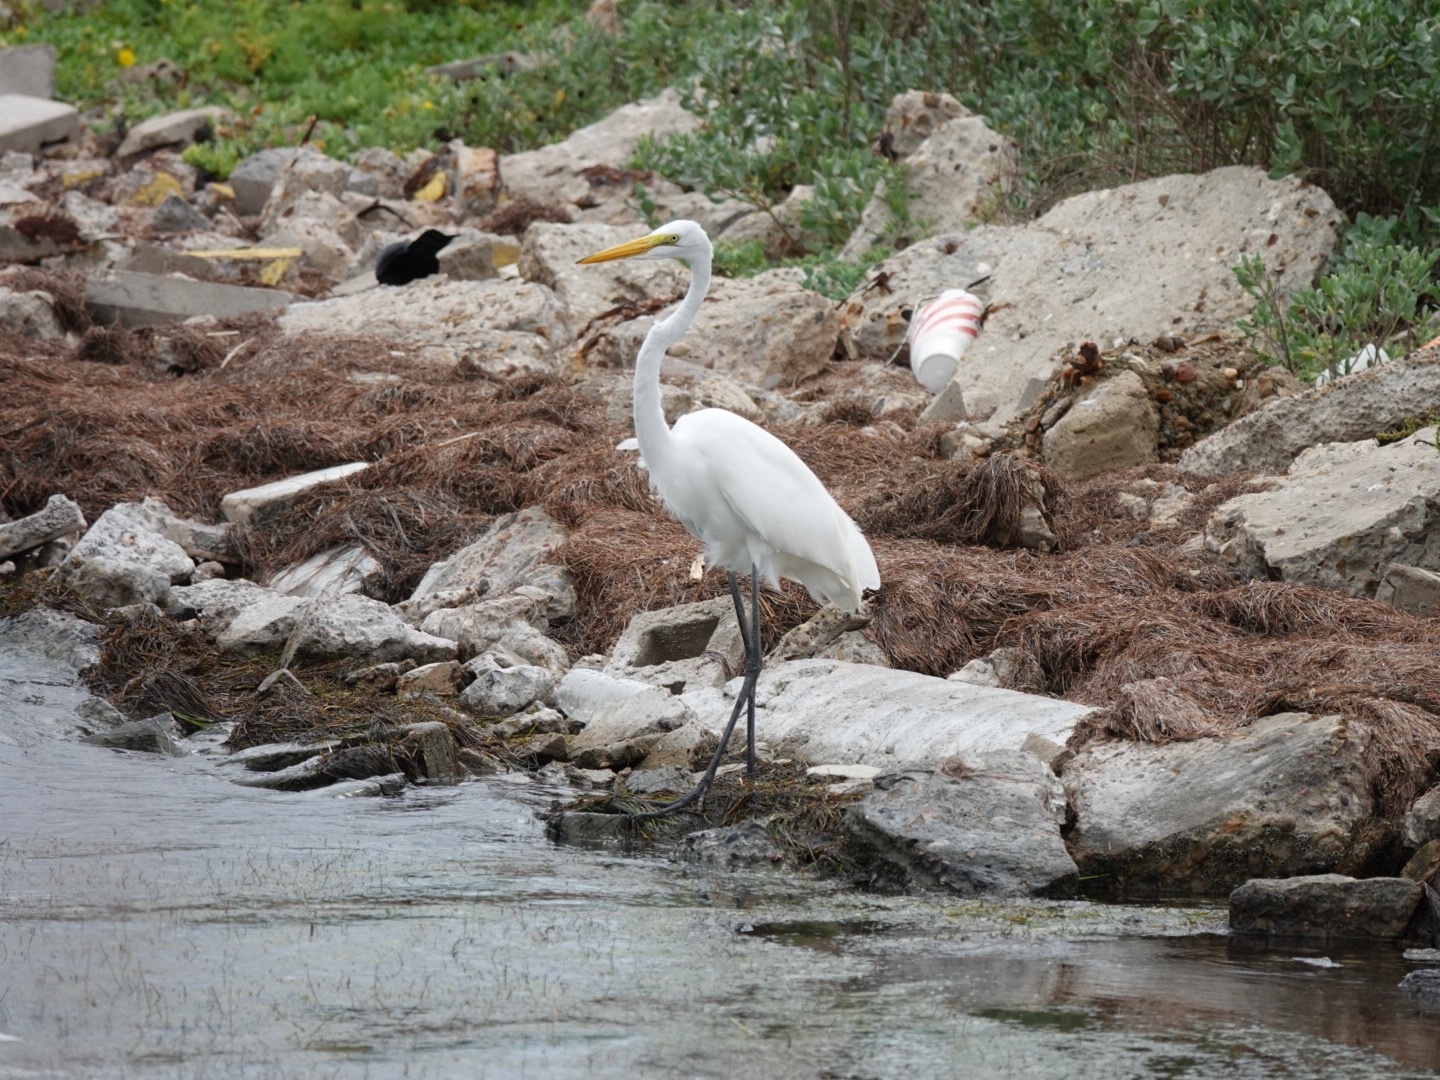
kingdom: Animalia
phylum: Chordata
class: Aves
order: Pelecaniformes
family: Ardeidae
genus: Ardea
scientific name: Ardea alba
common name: Great egret
